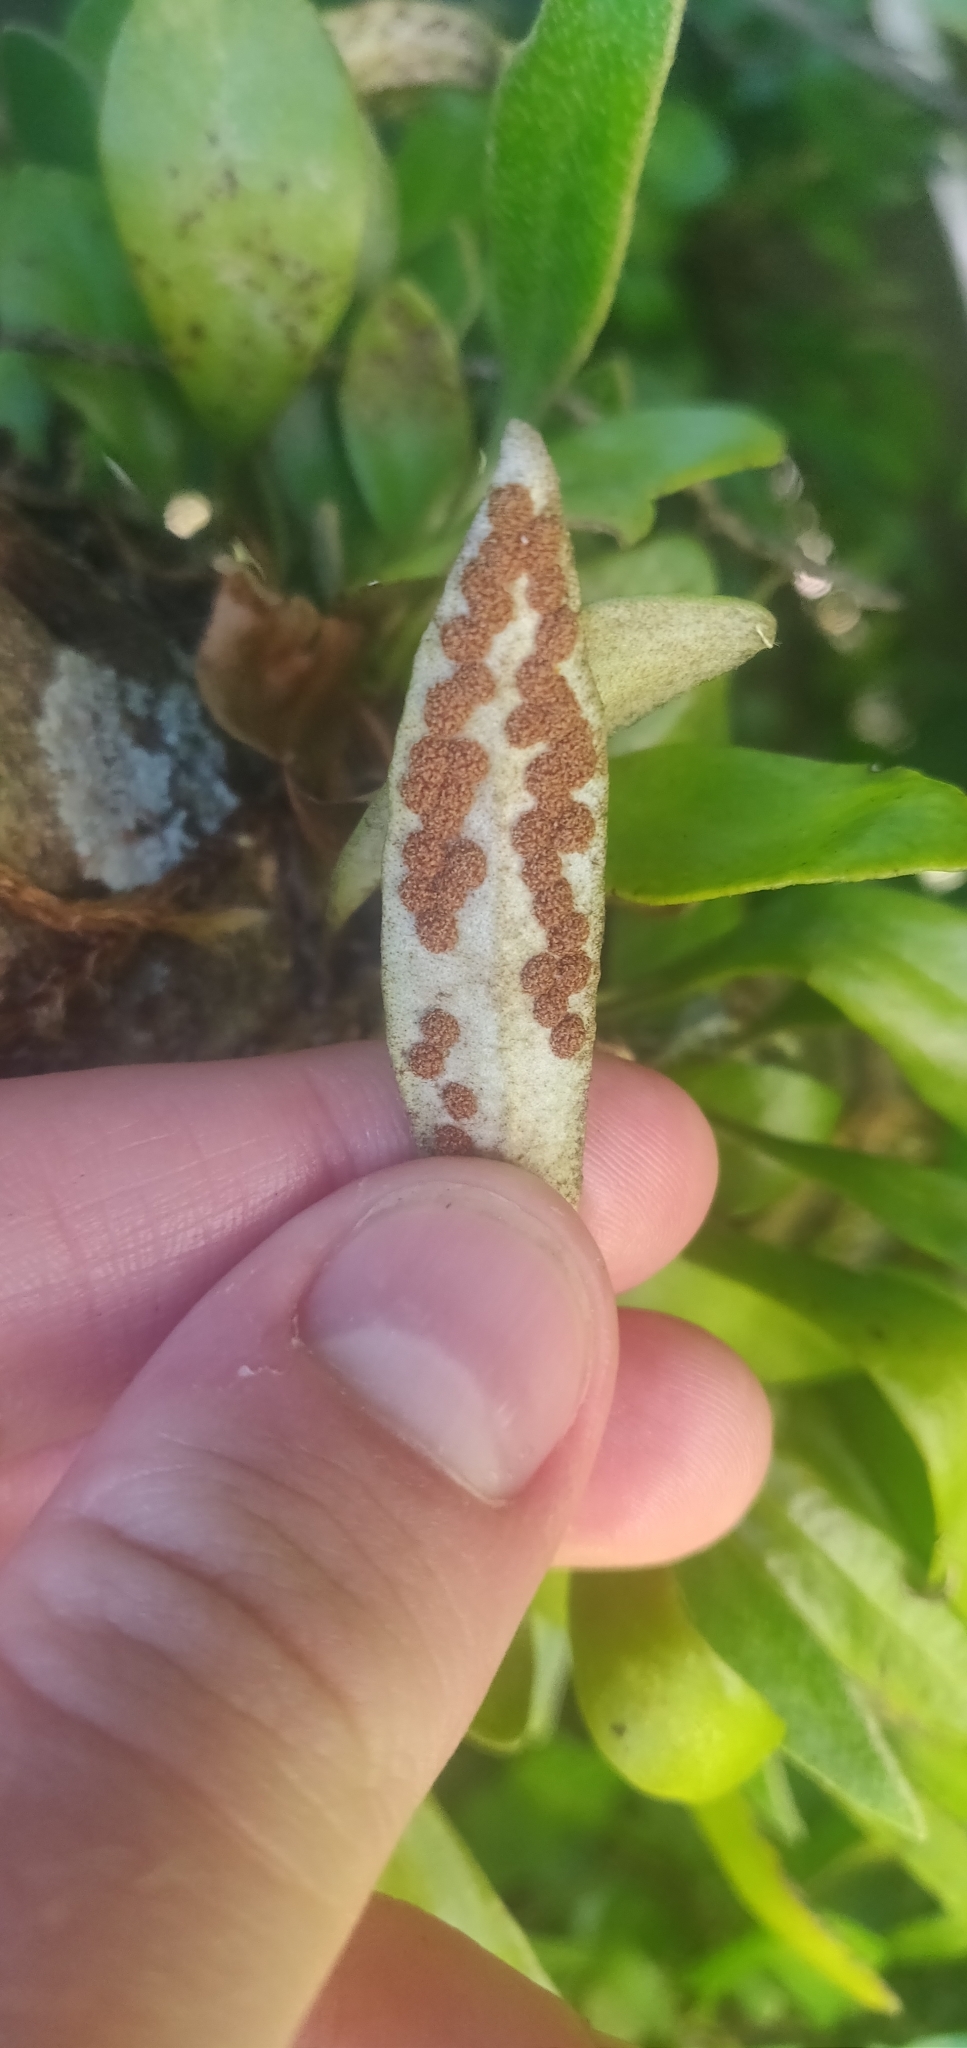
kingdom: Plantae
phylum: Tracheophyta
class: Polypodiopsida
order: Polypodiales
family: Polypodiaceae
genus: Pyrrosia
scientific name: Pyrrosia eleagnifolia
